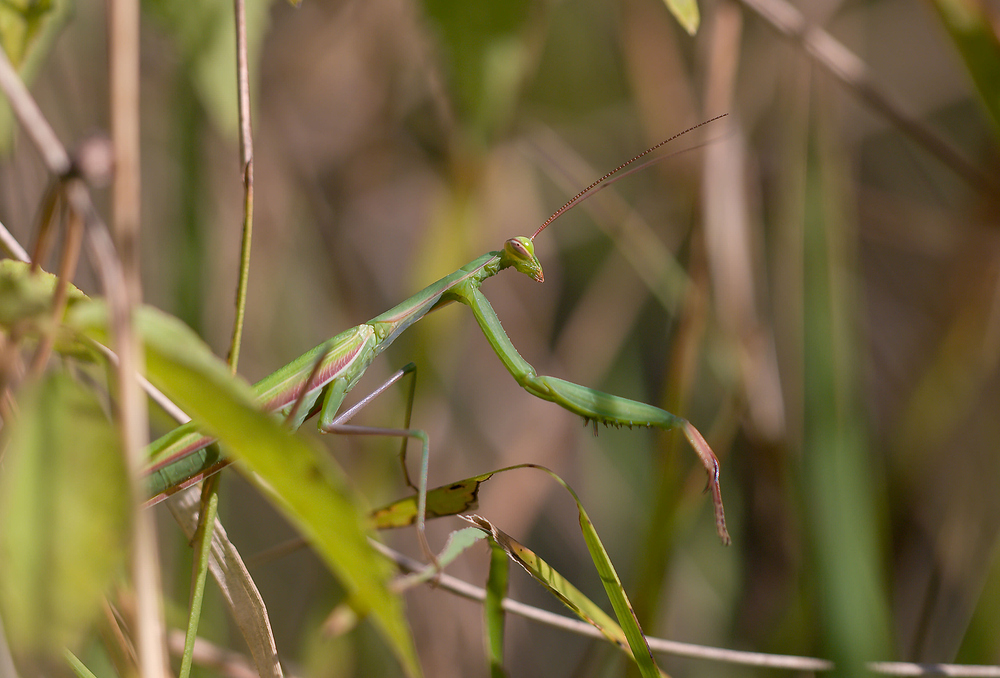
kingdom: Animalia
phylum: Arthropoda
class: Insecta
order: Mantodea
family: Mantidae
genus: Mantis
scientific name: Mantis religiosa
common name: Praying mantis
